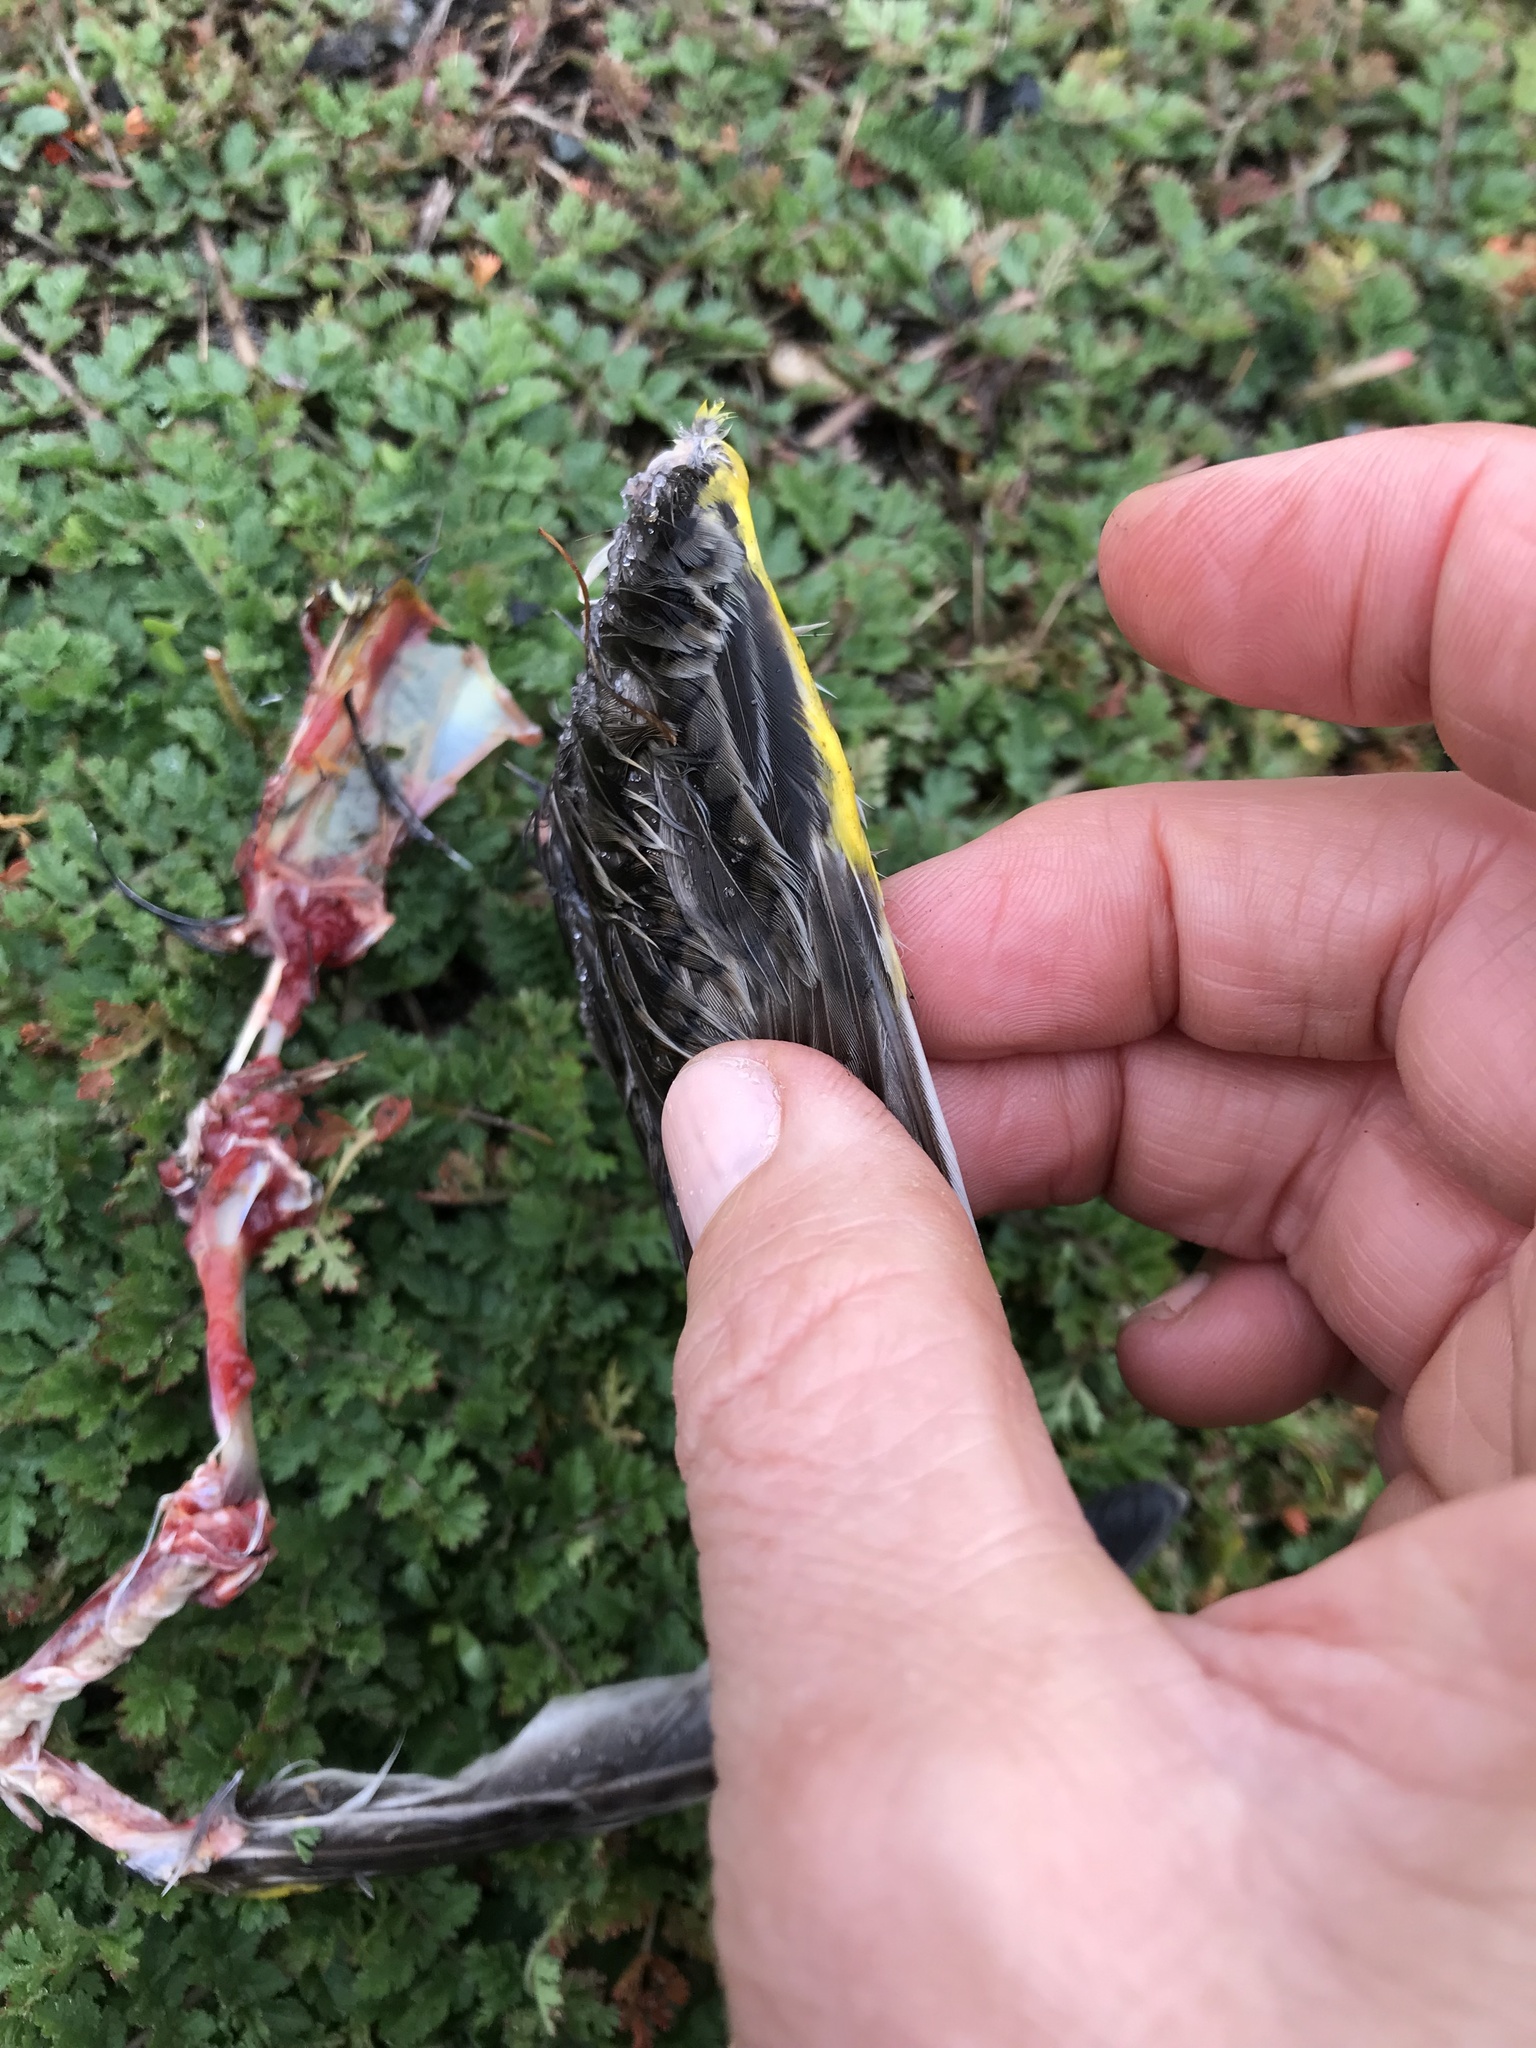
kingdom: Animalia
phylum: Chordata
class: Aves
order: Passeriformes
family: Icteridae
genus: Sturnella
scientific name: Sturnella neglecta
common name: Western meadowlark
